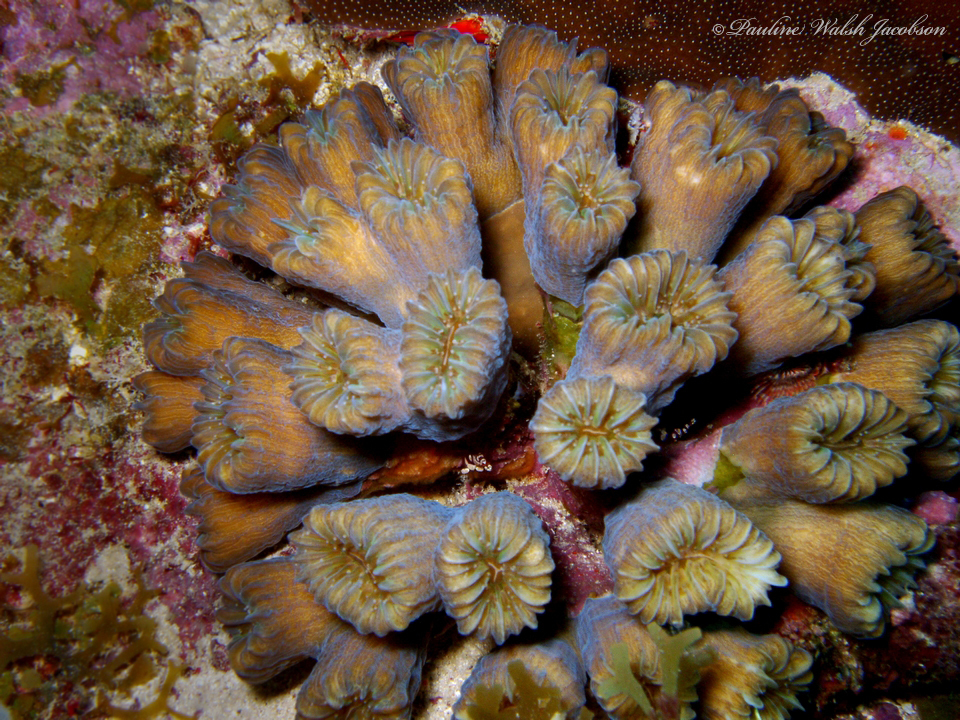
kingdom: Animalia
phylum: Cnidaria
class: Anthozoa
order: Scleractinia
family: Meandrinidae
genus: Eusmilia
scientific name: Eusmilia fastigiata
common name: Smooth flower coral
